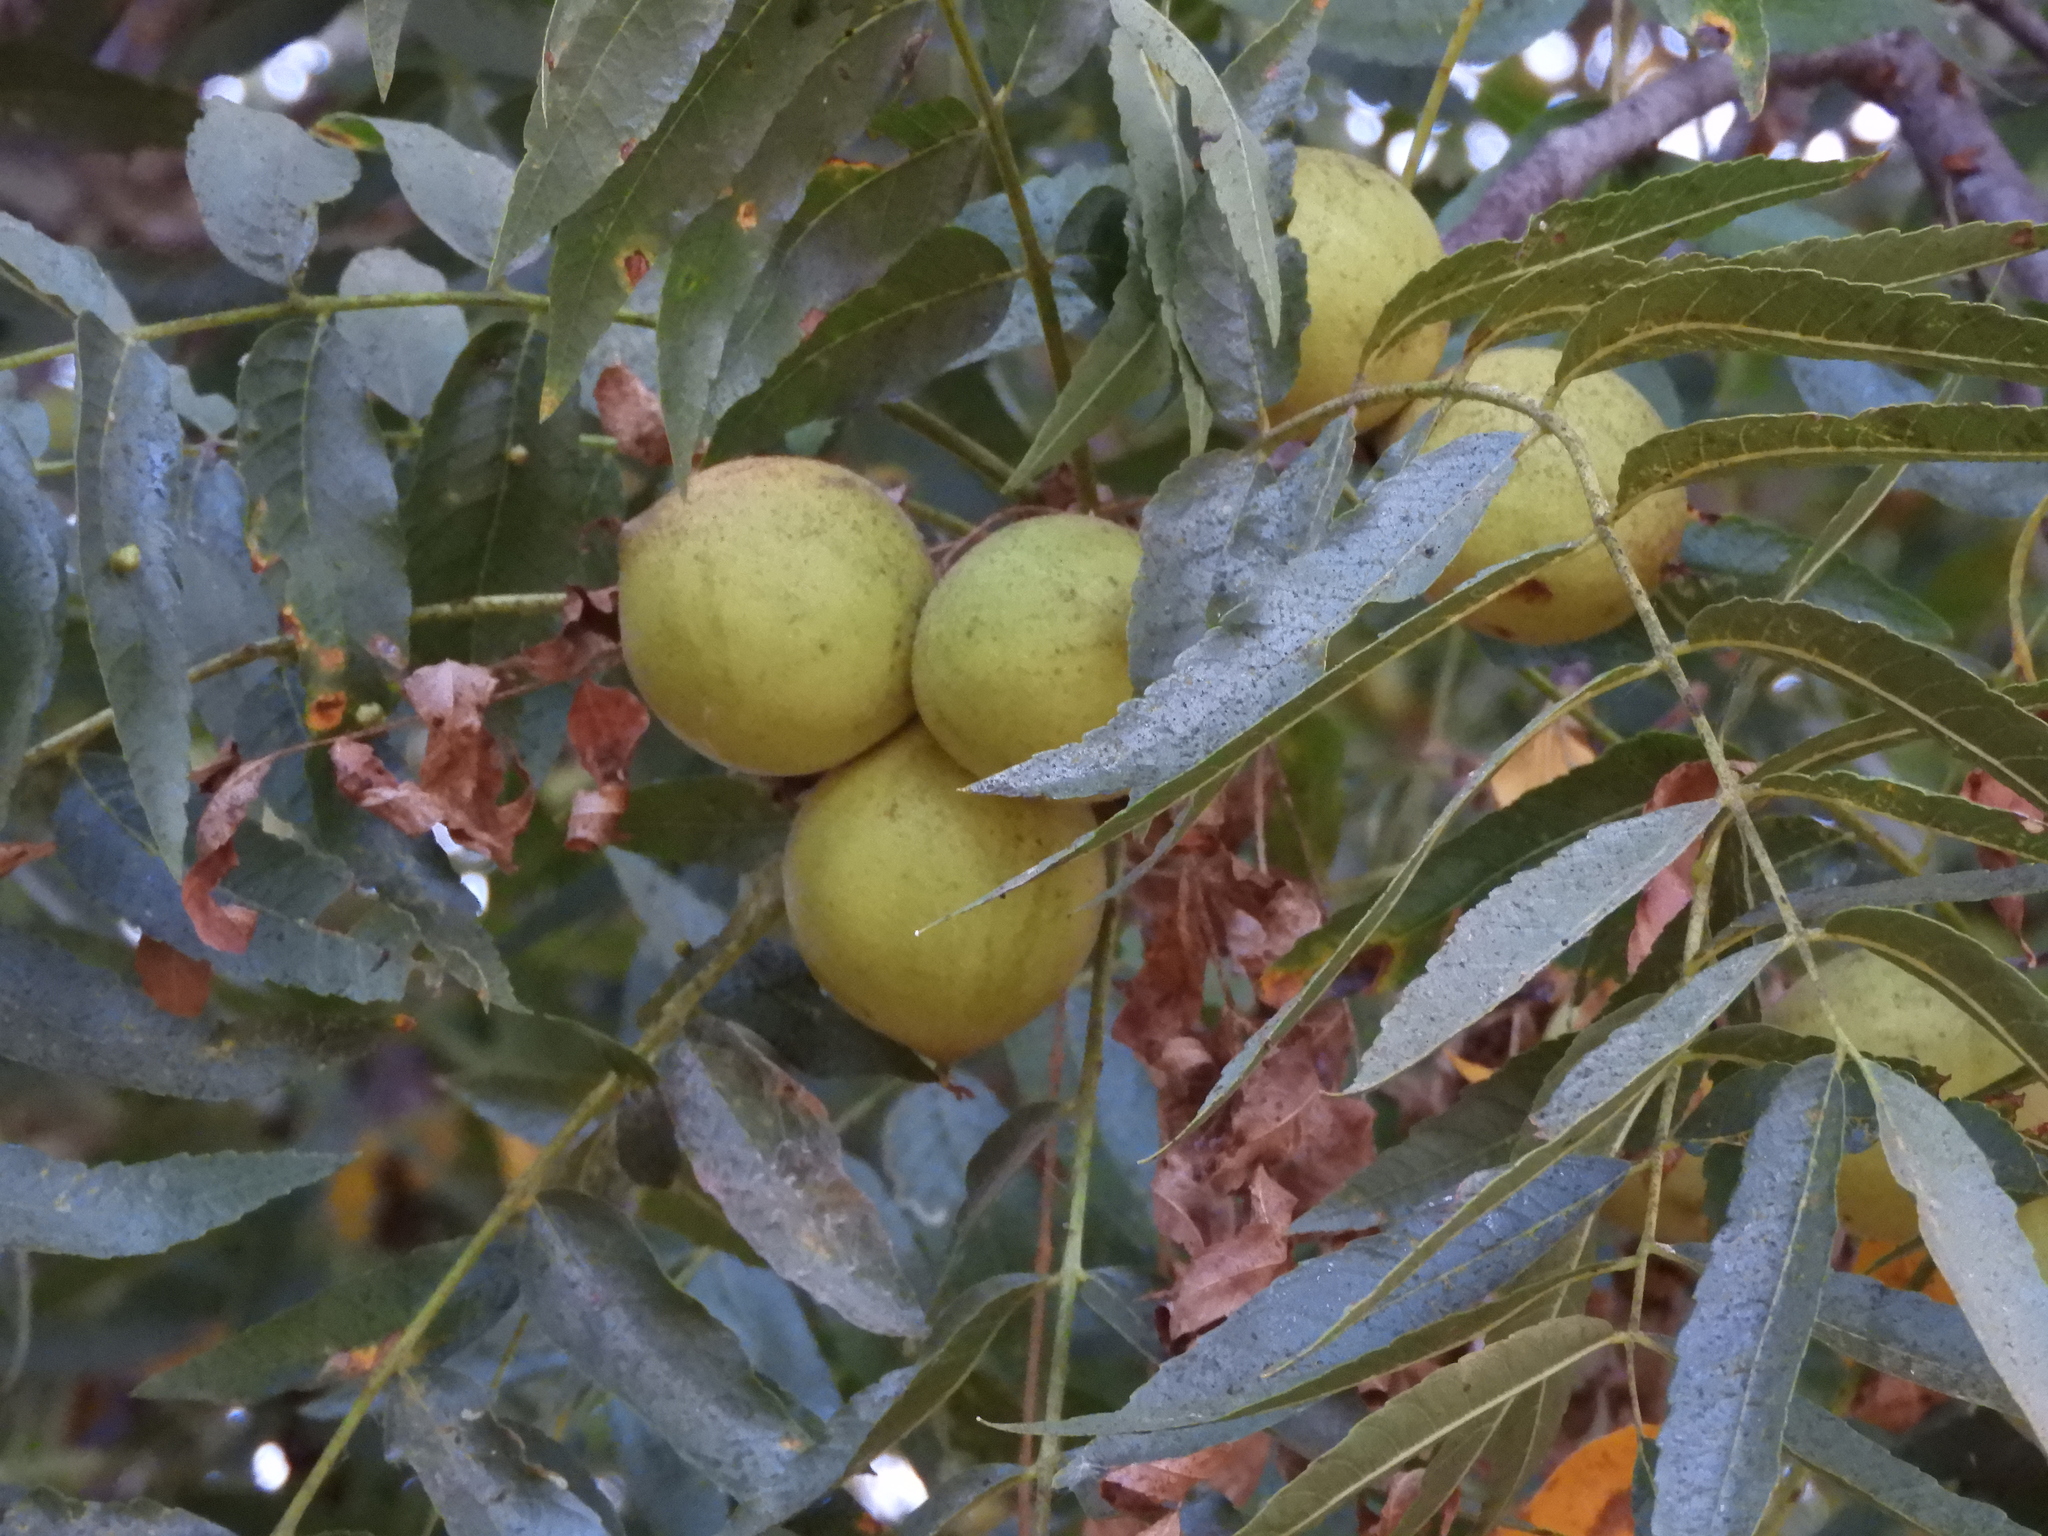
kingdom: Plantae
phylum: Tracheophyta
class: Magnoliopsida
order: Fagales
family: Juglandaceae
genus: Juglans
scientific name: Juglans hindsii
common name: Northern california black walnut
